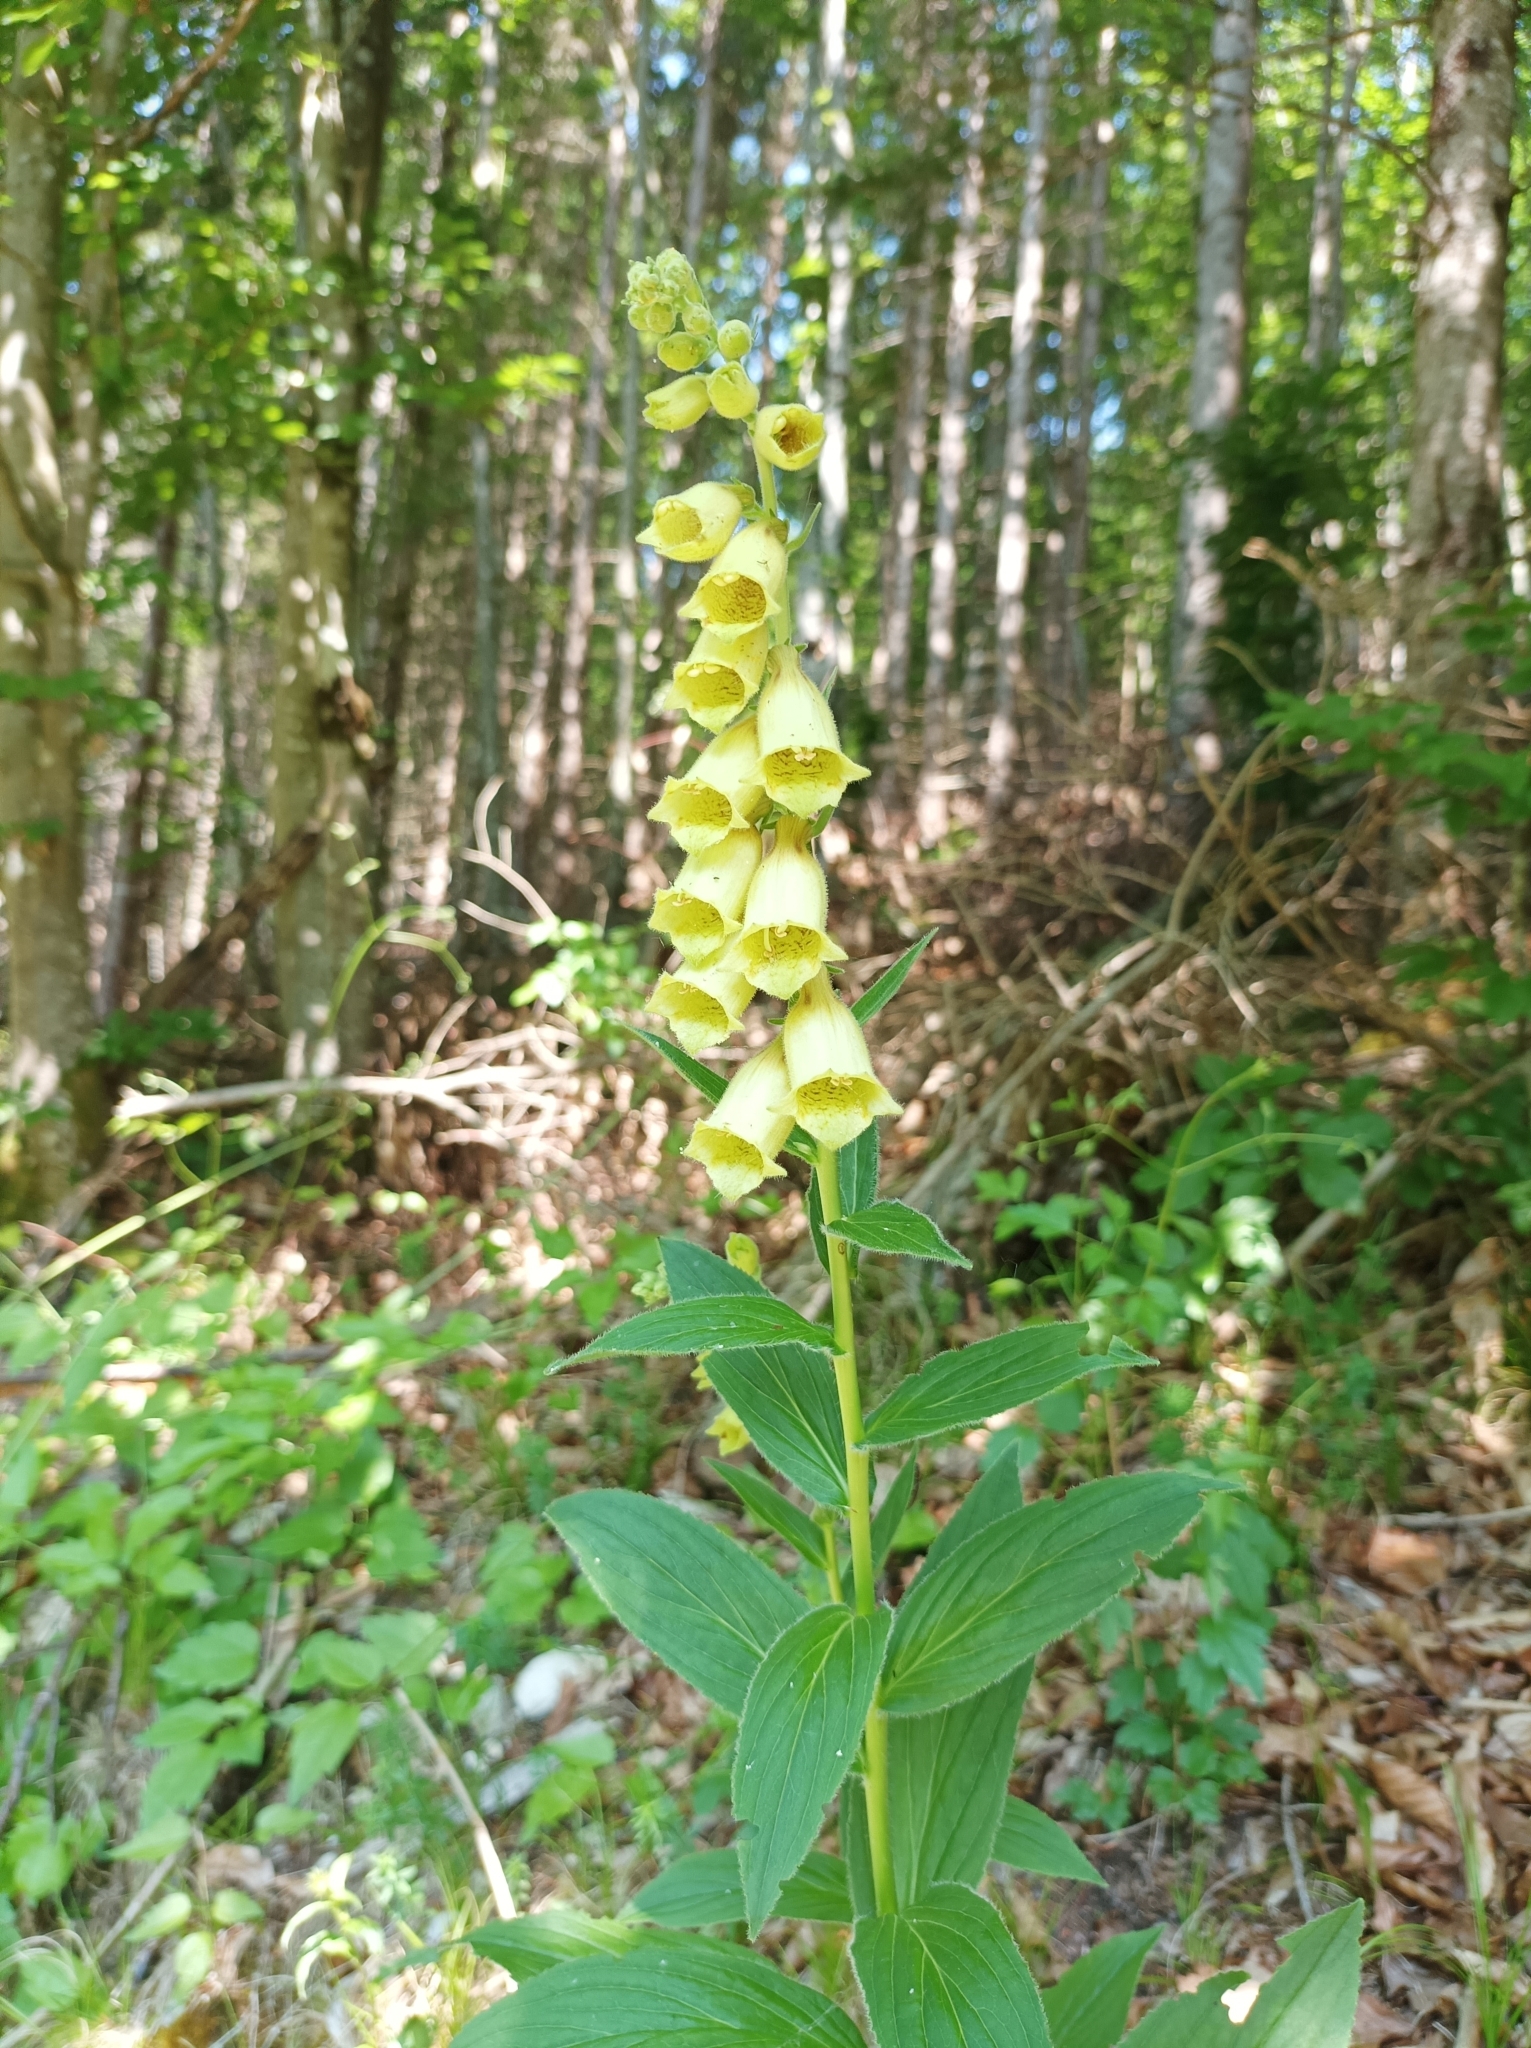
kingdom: Plantae
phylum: Tracheophyta
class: Magnoliopsida
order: Lamiales
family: Plantaginaceae
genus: Digitalis
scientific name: Digitalis grandiflora
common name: Yellow foxglove
